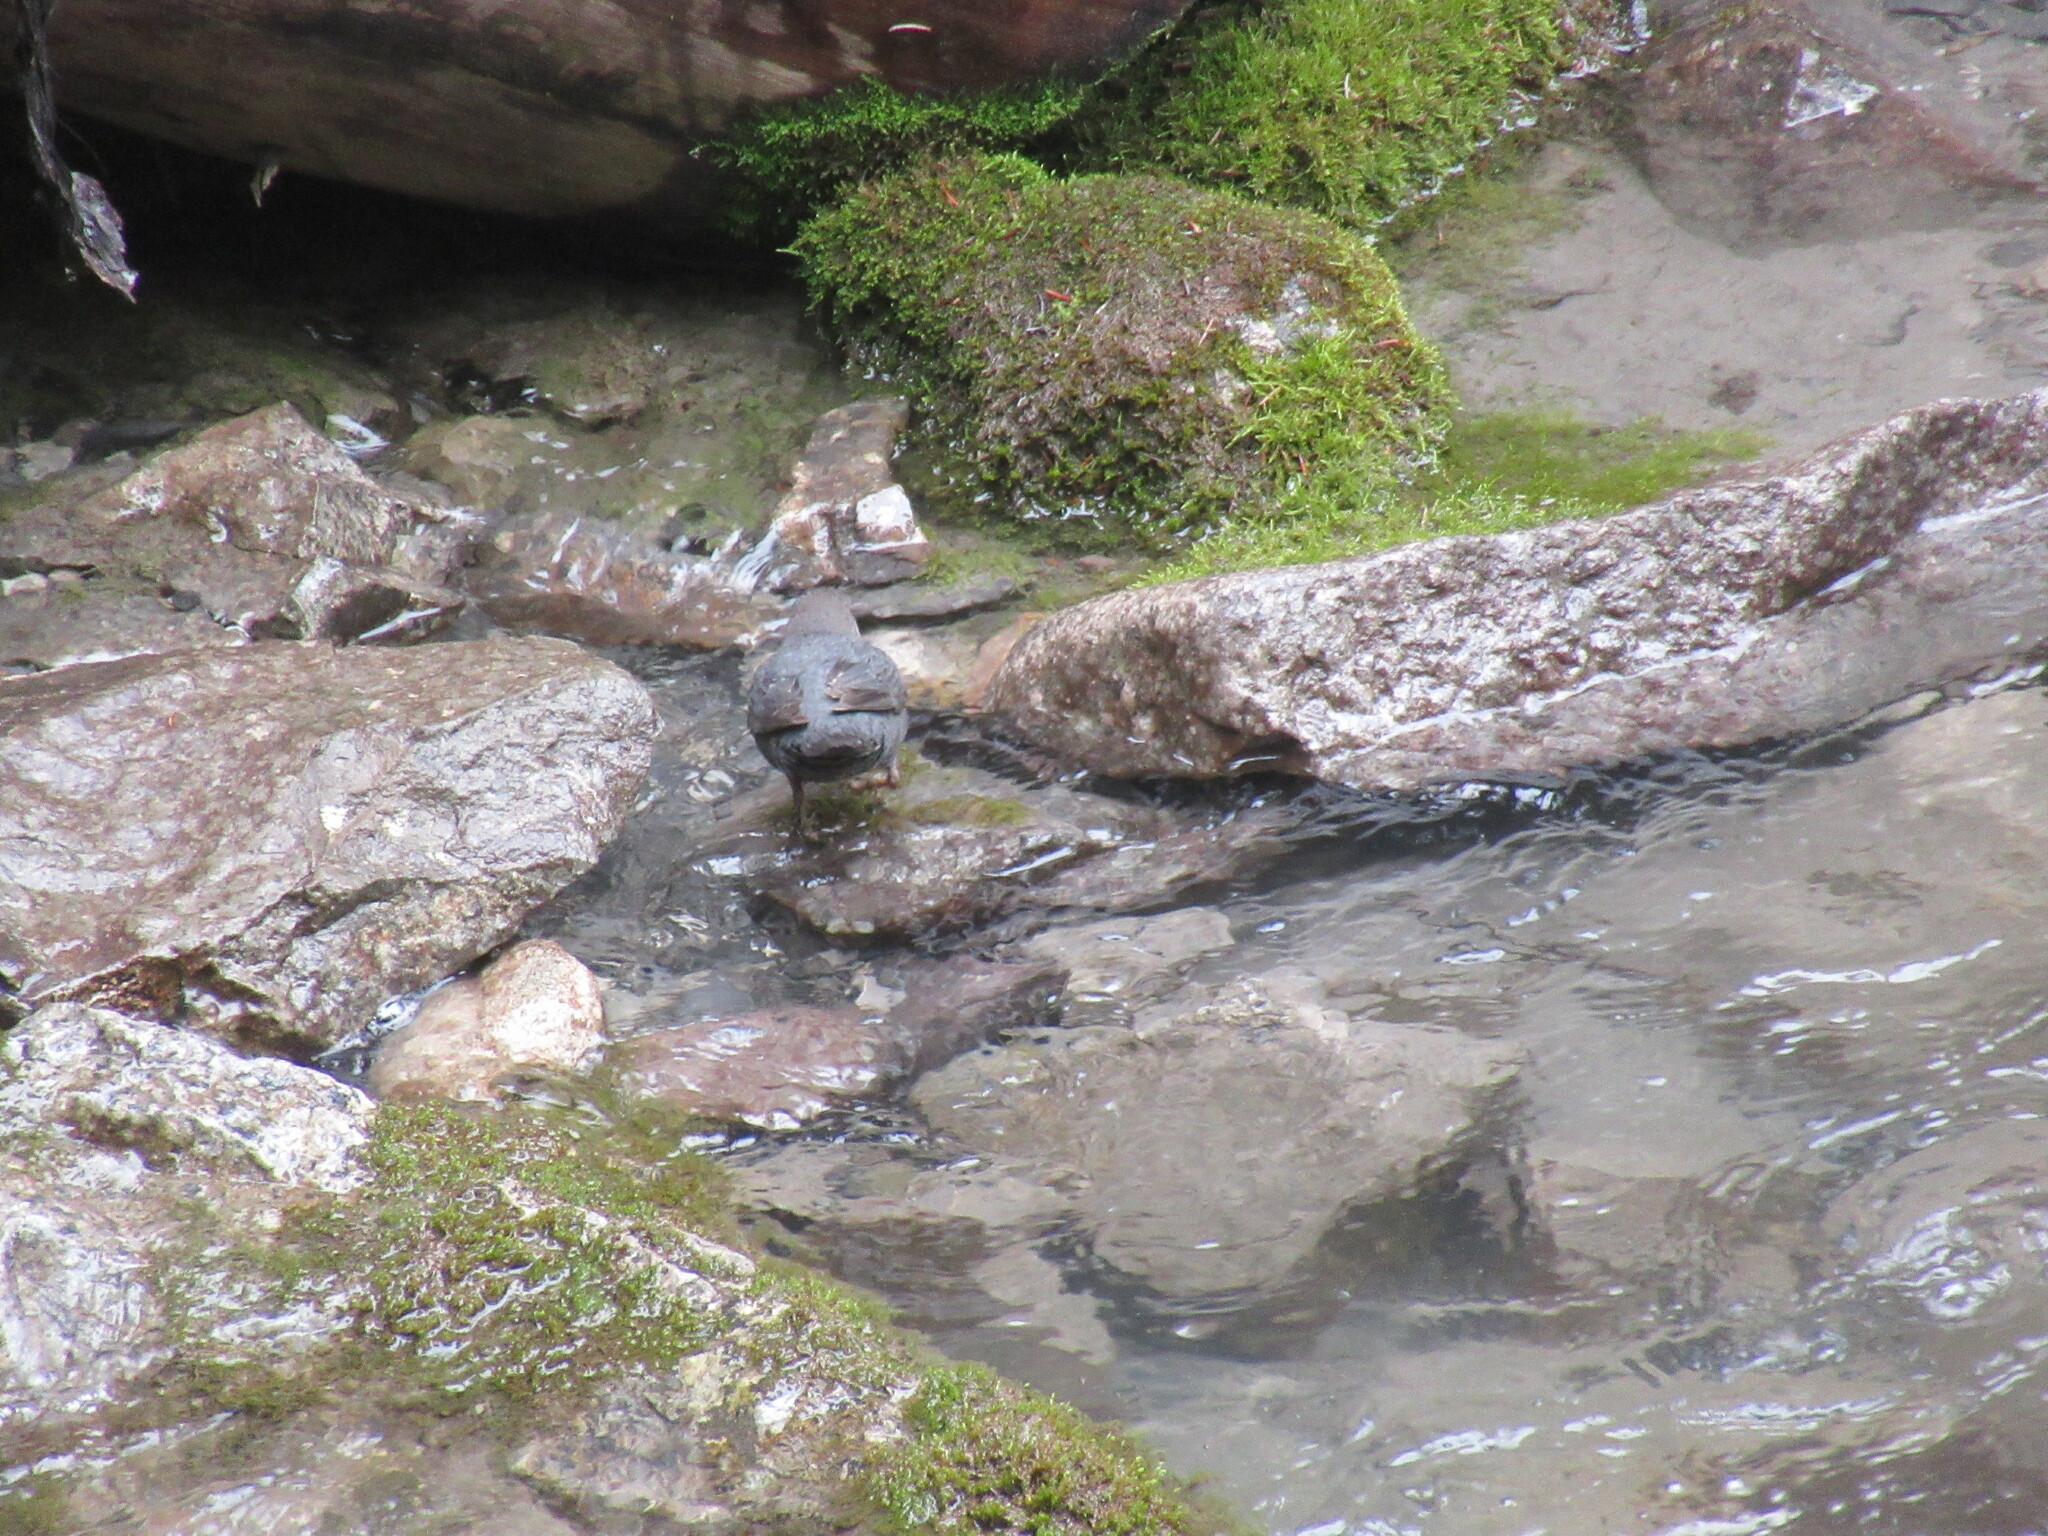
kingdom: Animalia
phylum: Chordata
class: Aves
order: Passeriformes
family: Cinclidae
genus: Cinclus
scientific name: Cinclus mexicanus
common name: American dipper
